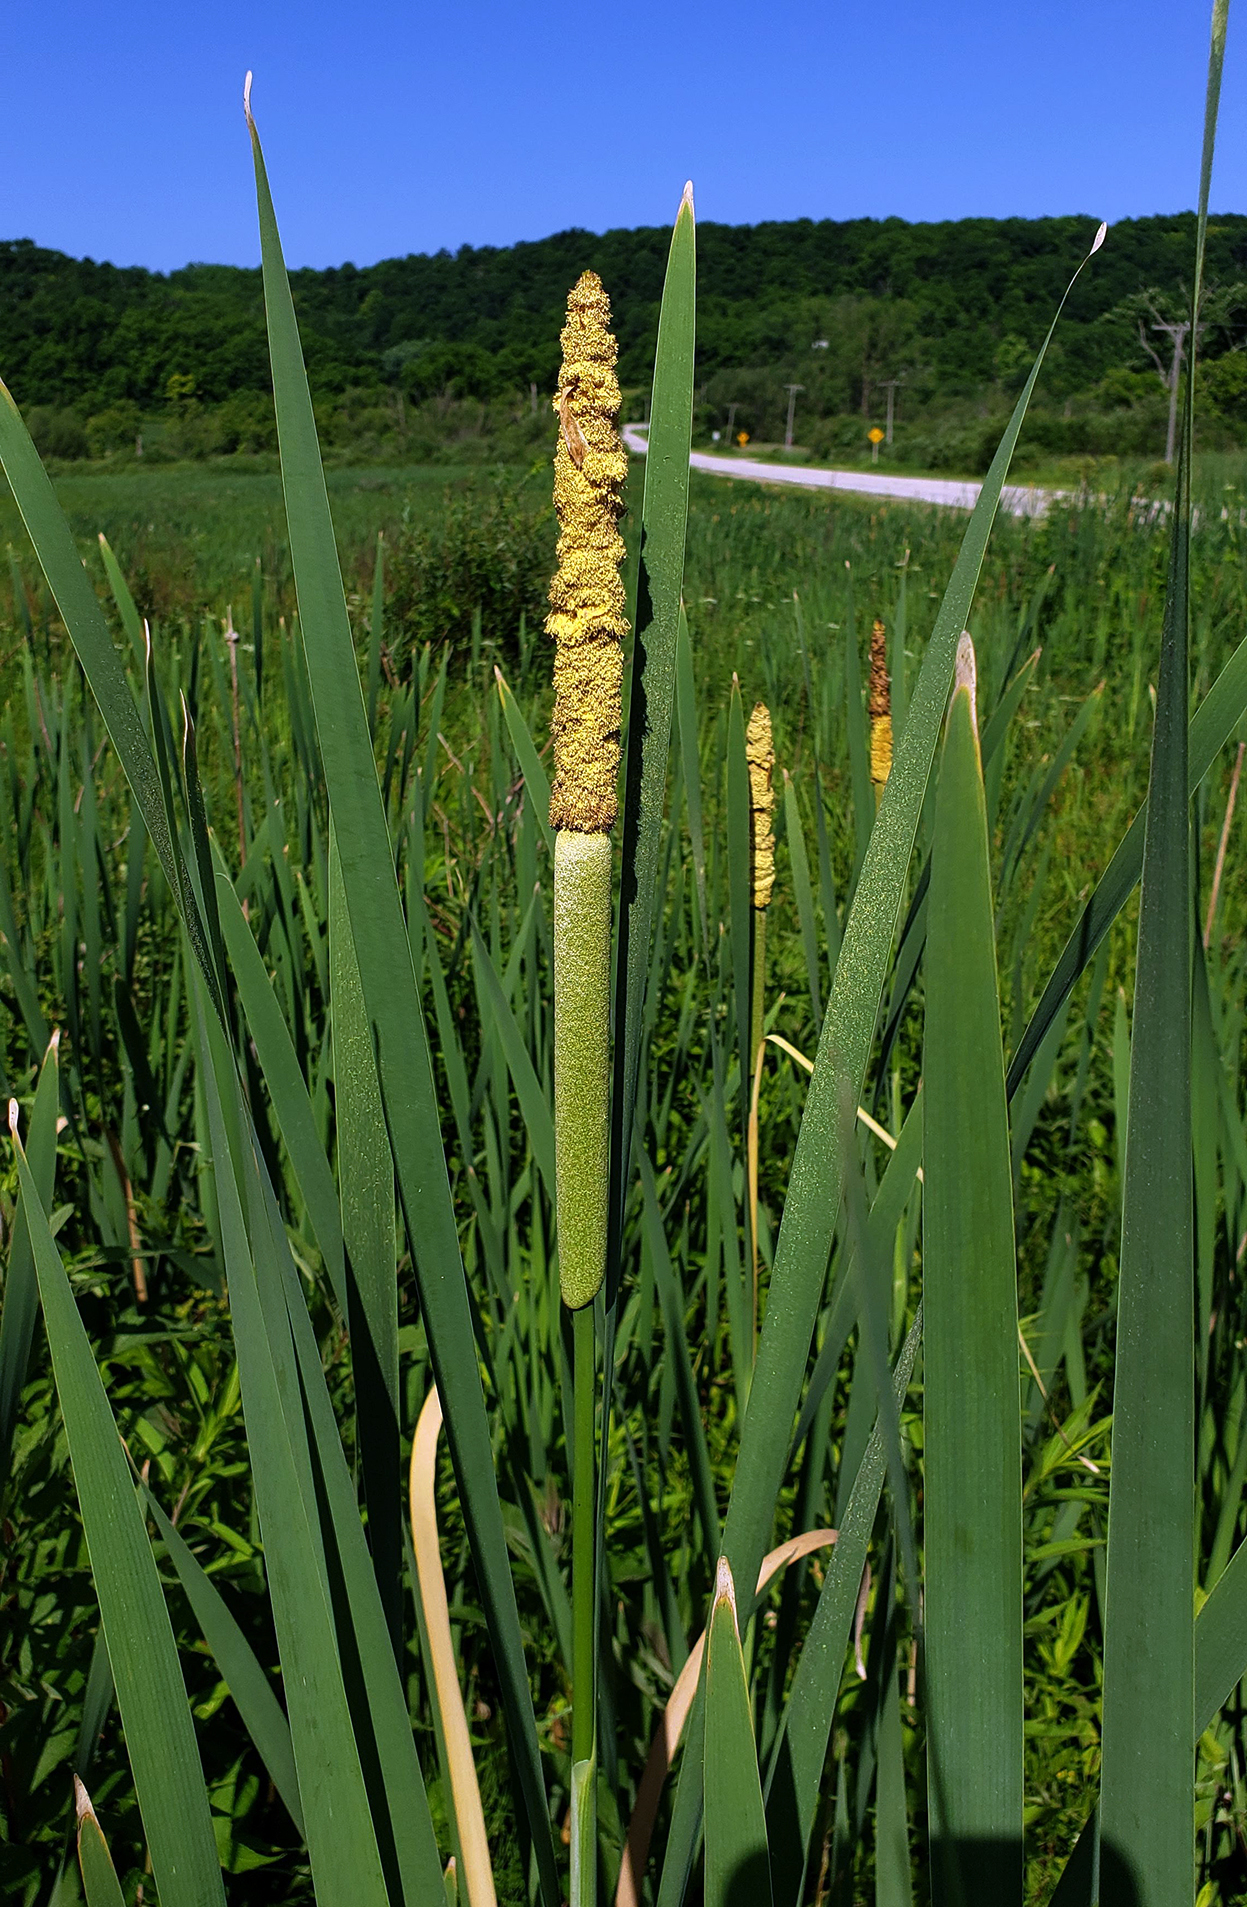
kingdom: Plantae
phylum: Tracheophyta
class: Liliopsida
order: Poales
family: Typhaceae
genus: Typha
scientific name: Typha latifolia
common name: Broadleaf cattail
